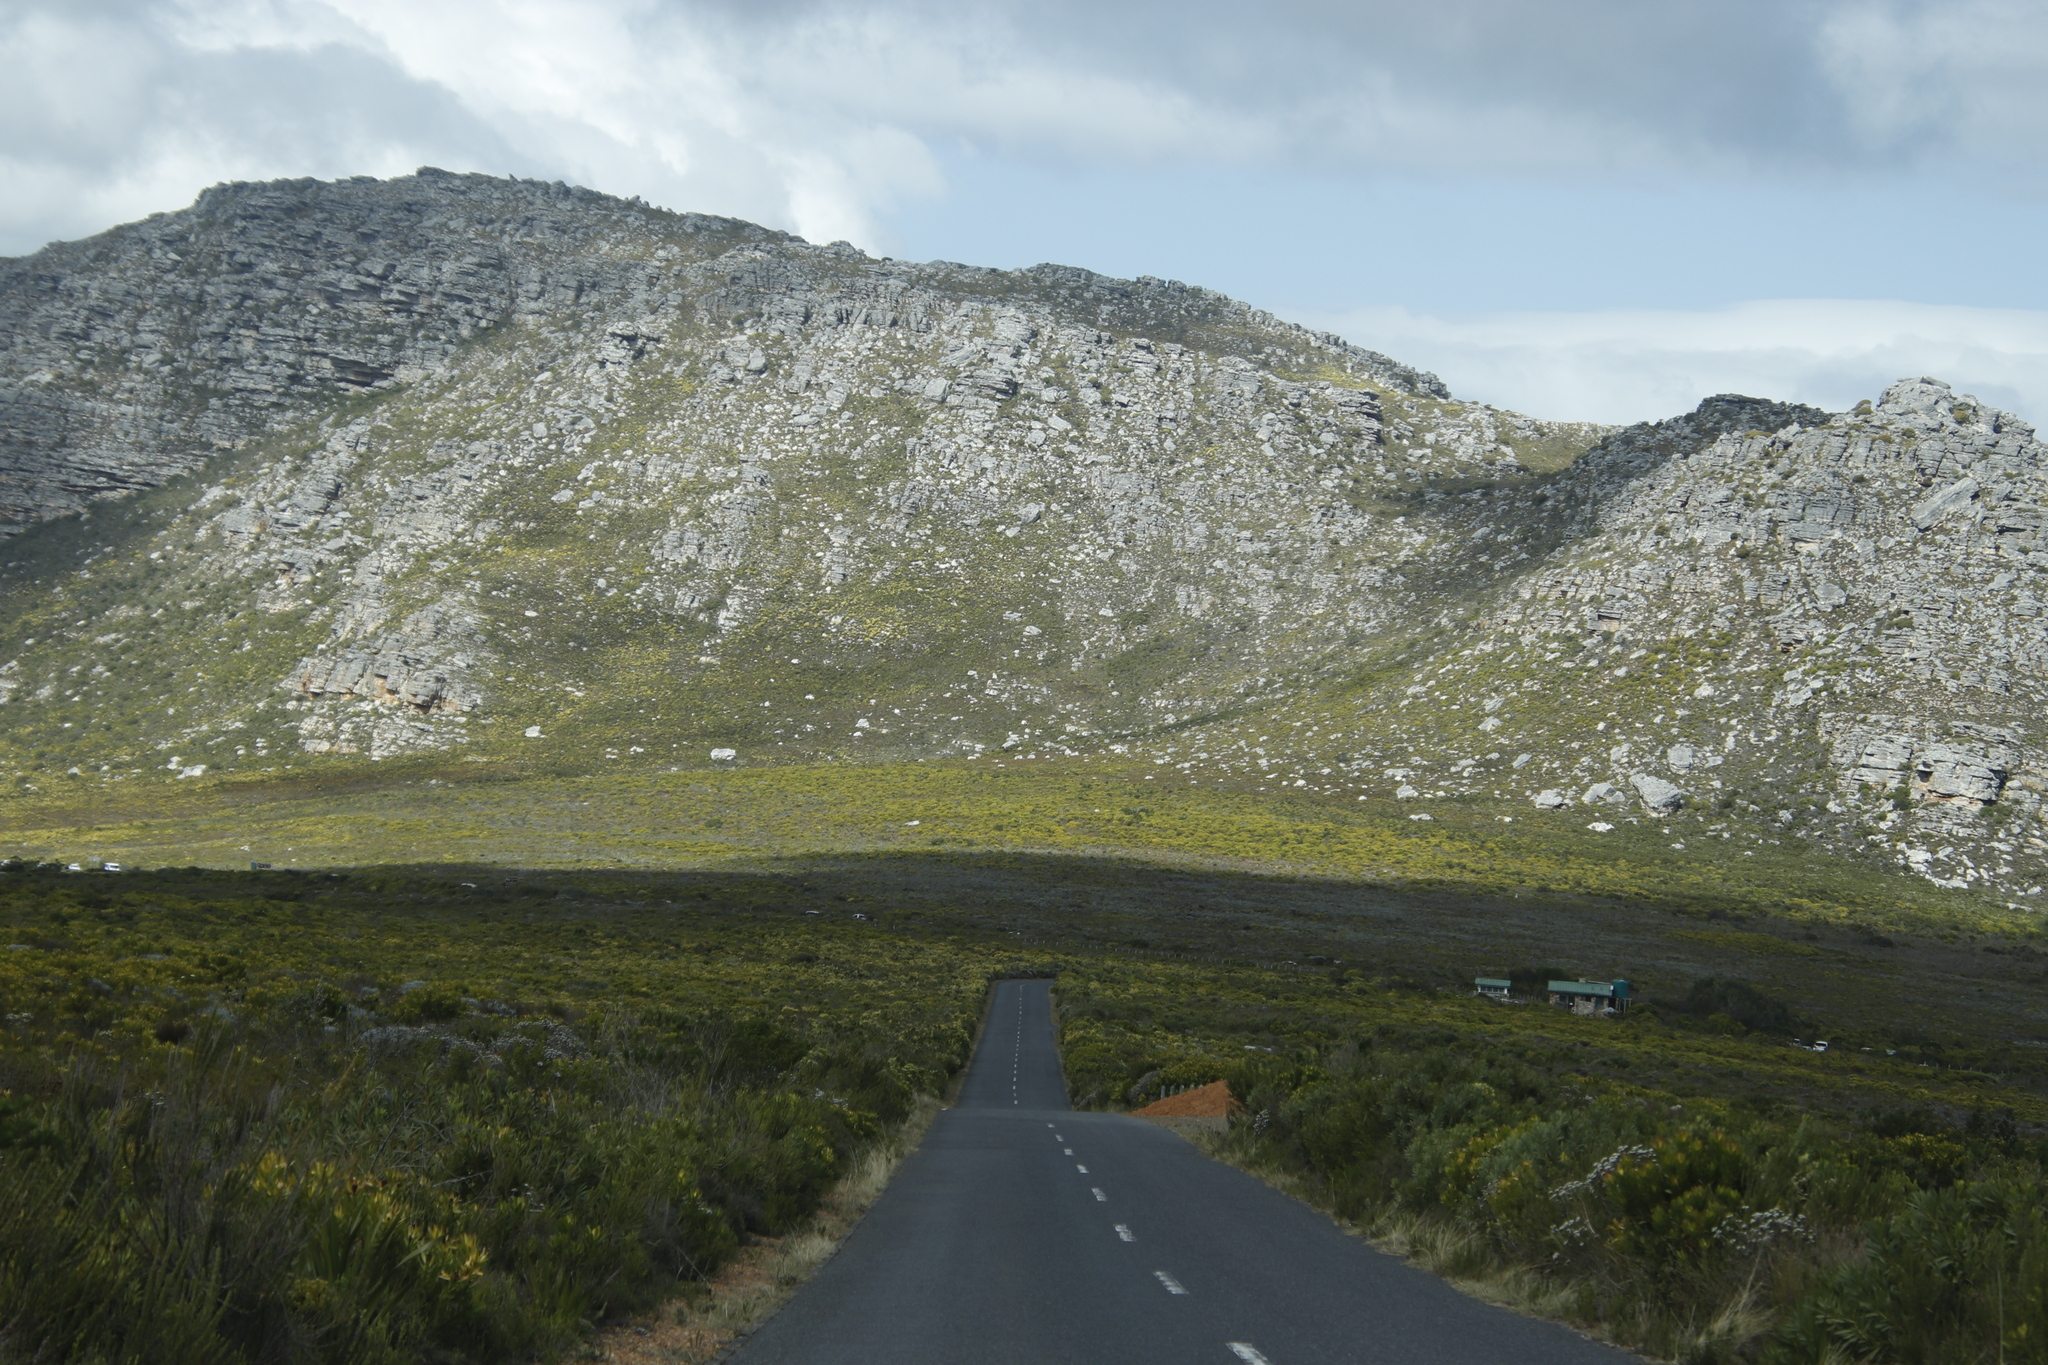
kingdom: Plantae
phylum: Tracheophyta
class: Magnoliopsida
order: Proteales
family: Proteaceae
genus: Leucadendron
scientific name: Leucadendron laureolum
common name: Golden sunshinebush
